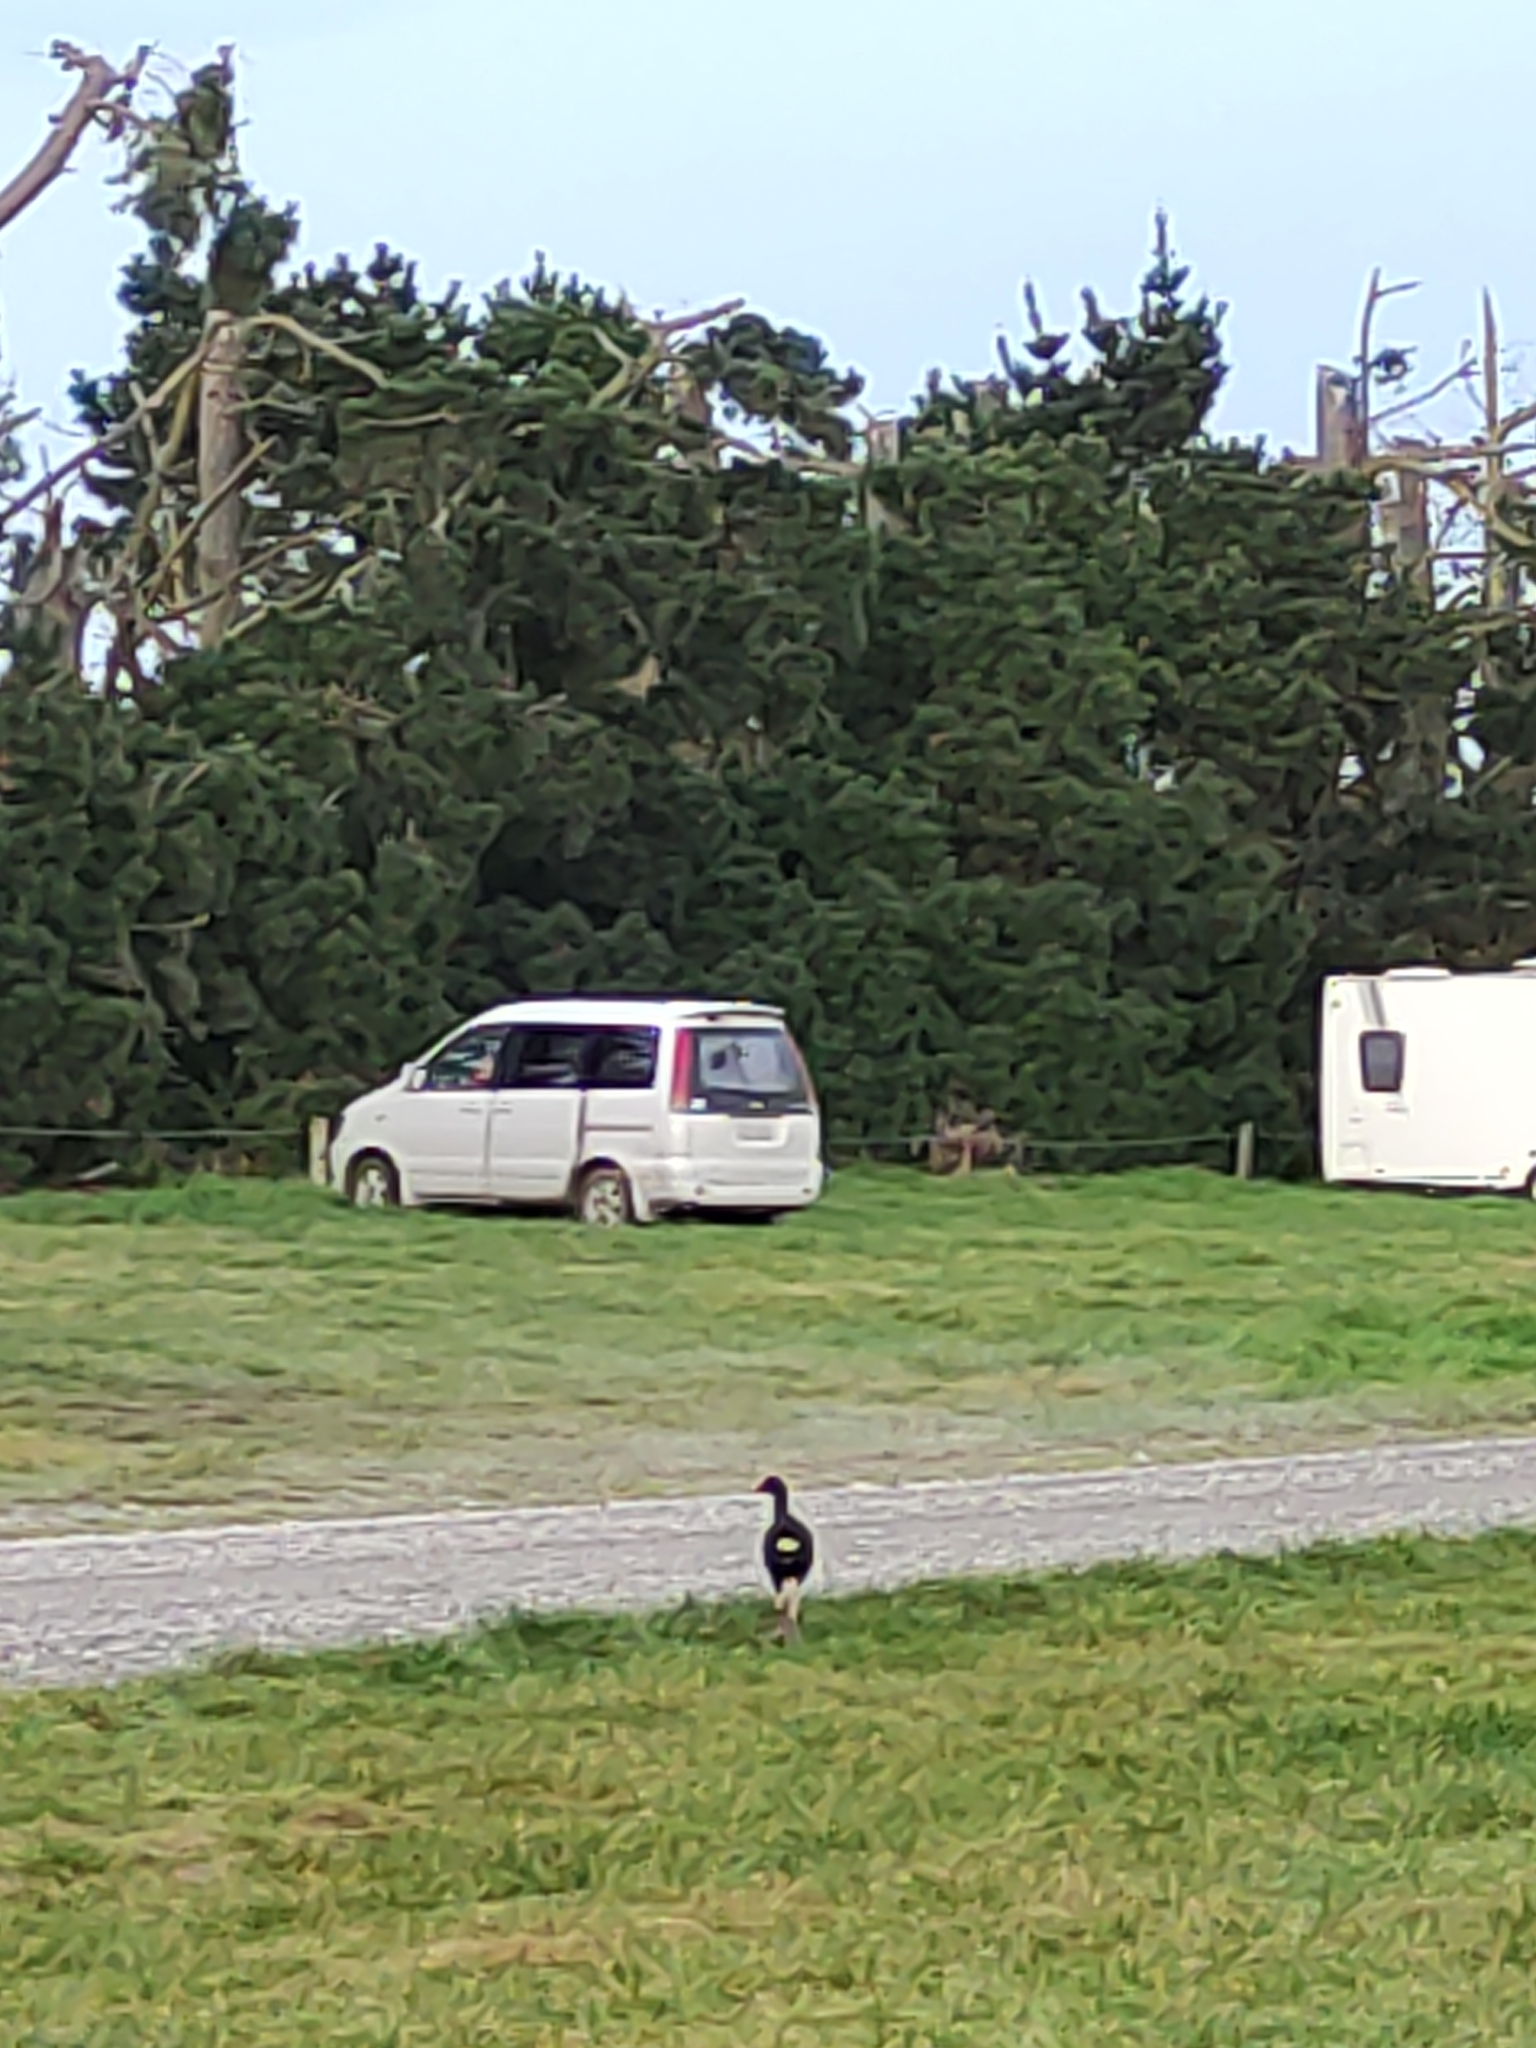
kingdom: Animalia
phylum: Chordata
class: Aves
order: Gruiformes
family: Rallidae
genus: Porphyrio
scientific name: Porphyrio melanotus
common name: Australasian swamphen
